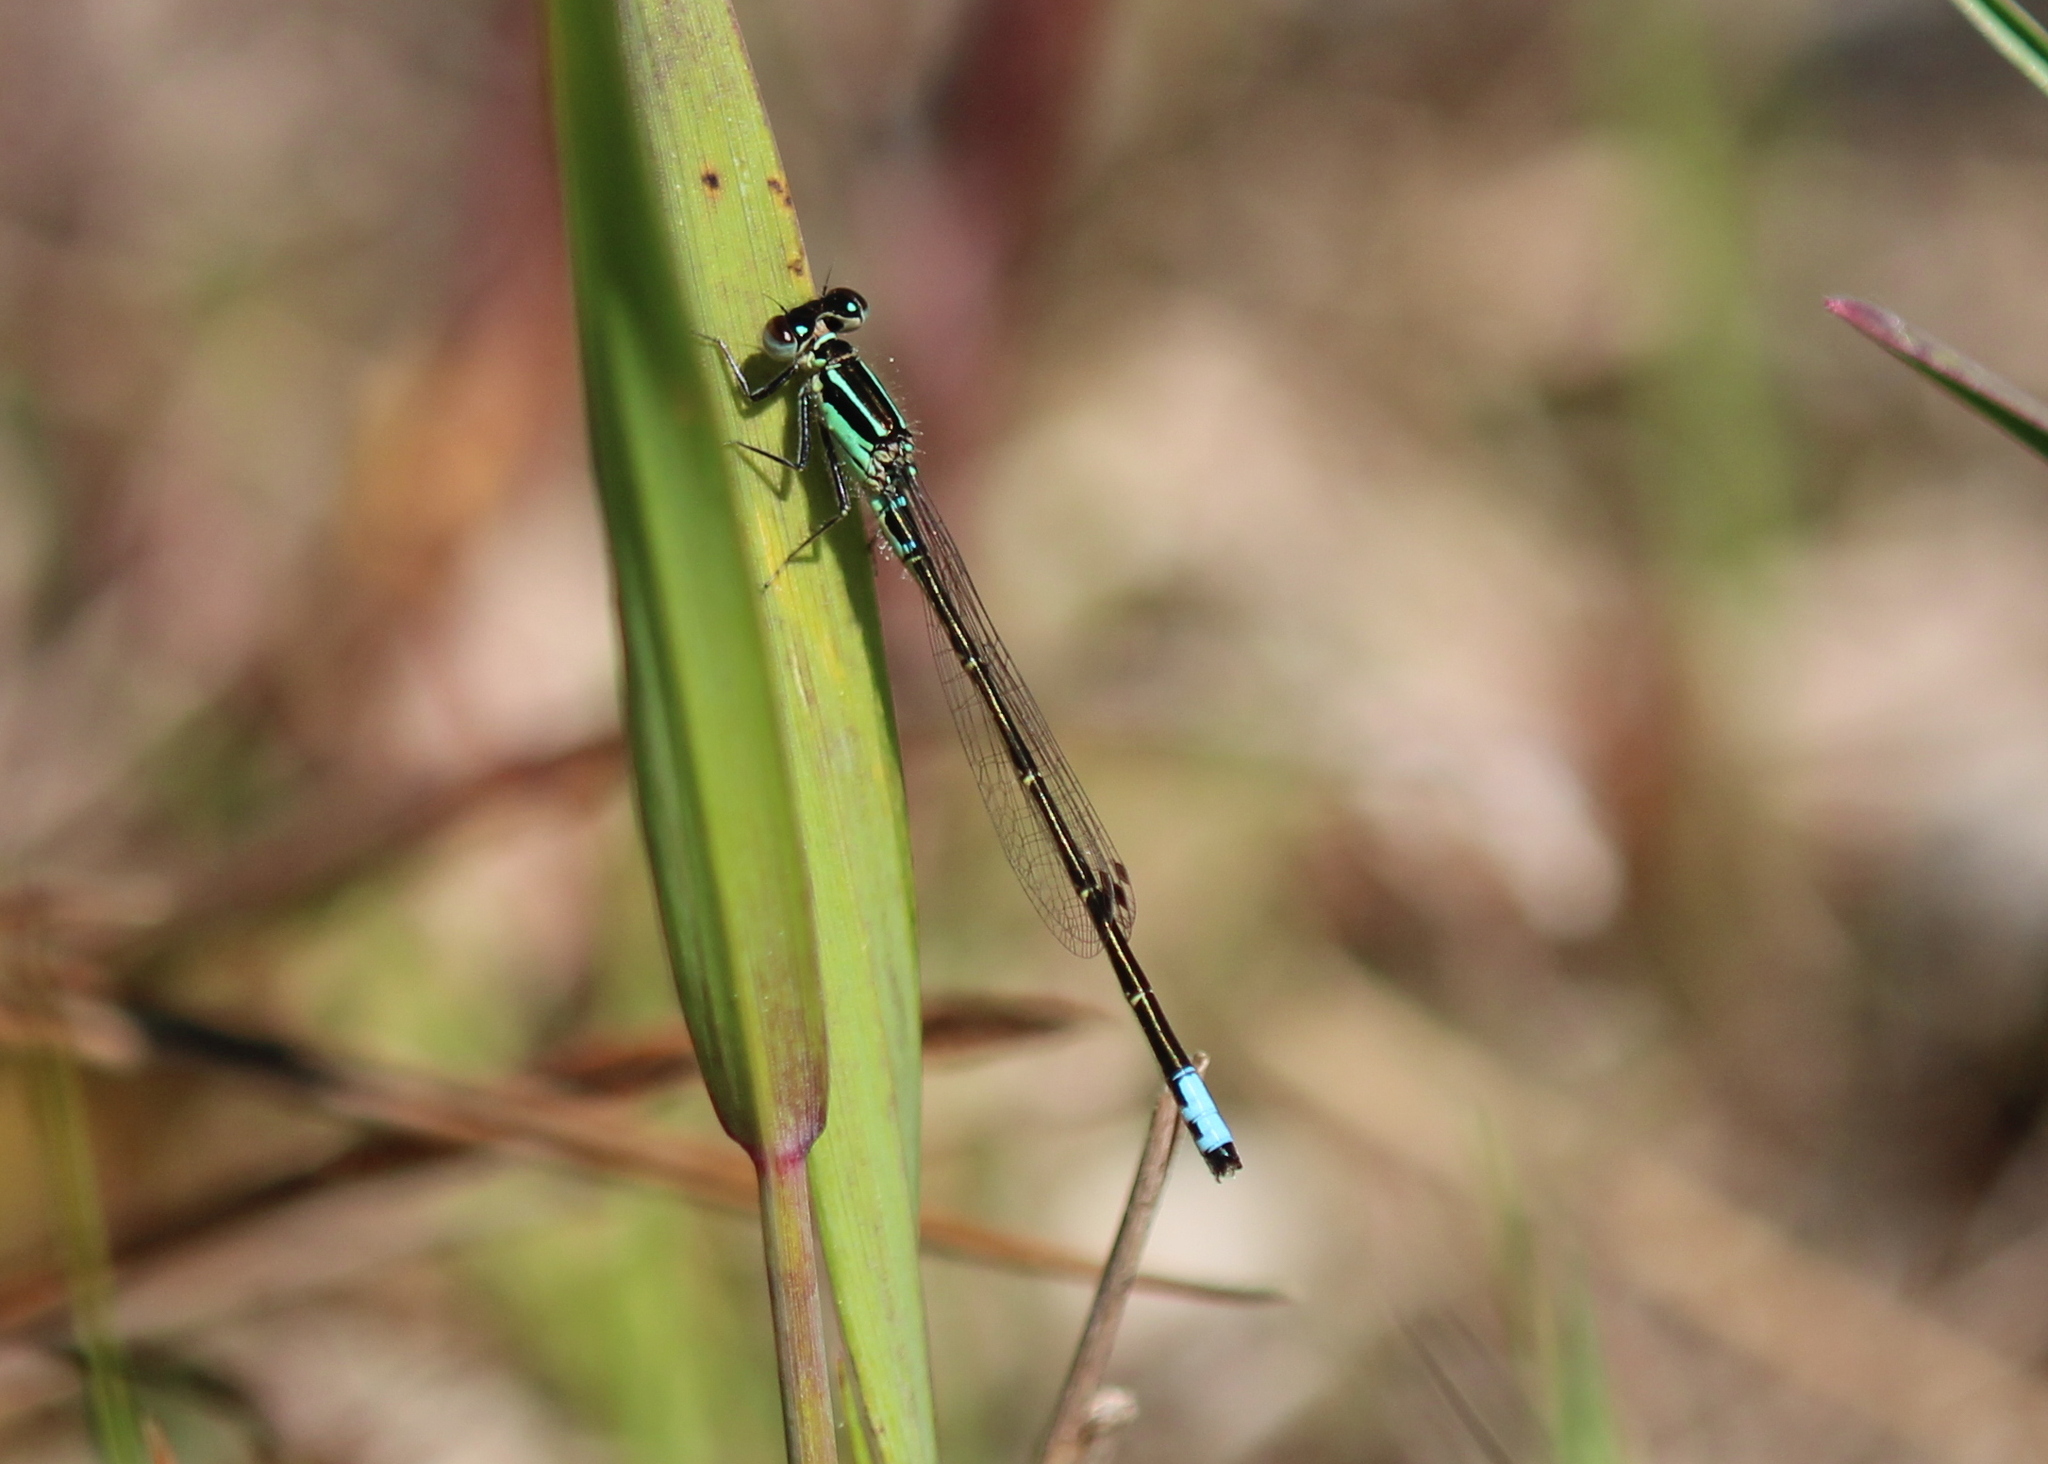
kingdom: Animalia
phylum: Arthropoda
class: Insecta
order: Odonata
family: Coenagrionidae
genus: Ischnura
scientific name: Ischnura verticalis
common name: Eastern forktail
